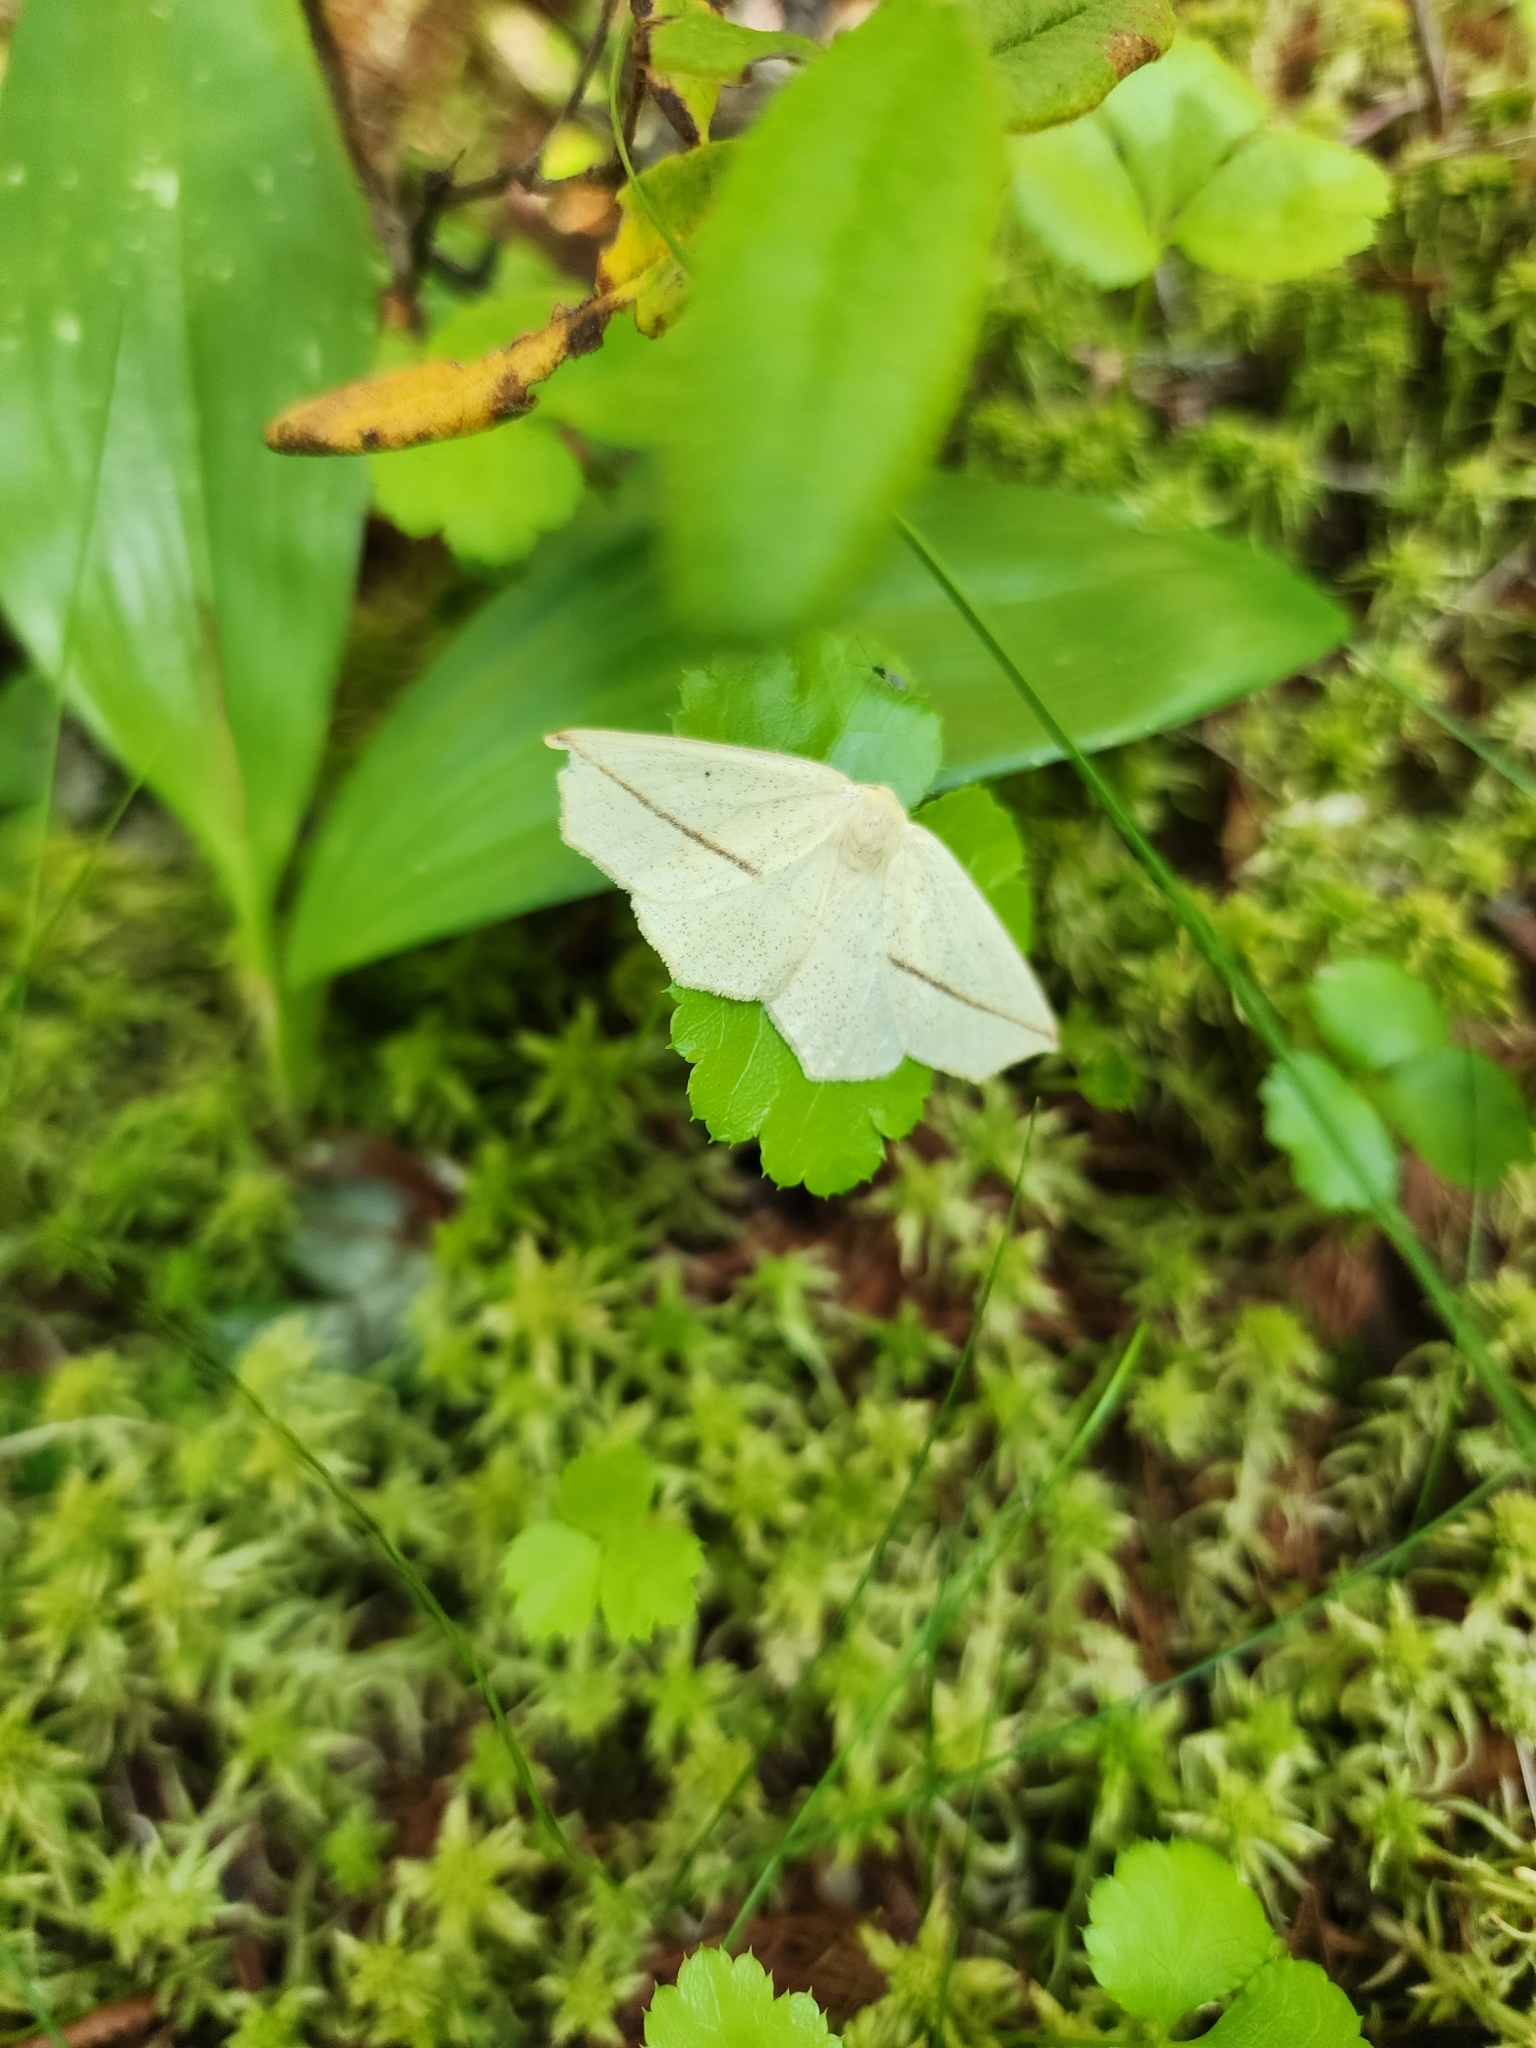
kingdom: Animalia
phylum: Arthropoda
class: Insecta
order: Lepidoptera
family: Geometridae
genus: Tetracis
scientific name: Tetracis crocallata
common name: Yellow slant-line
